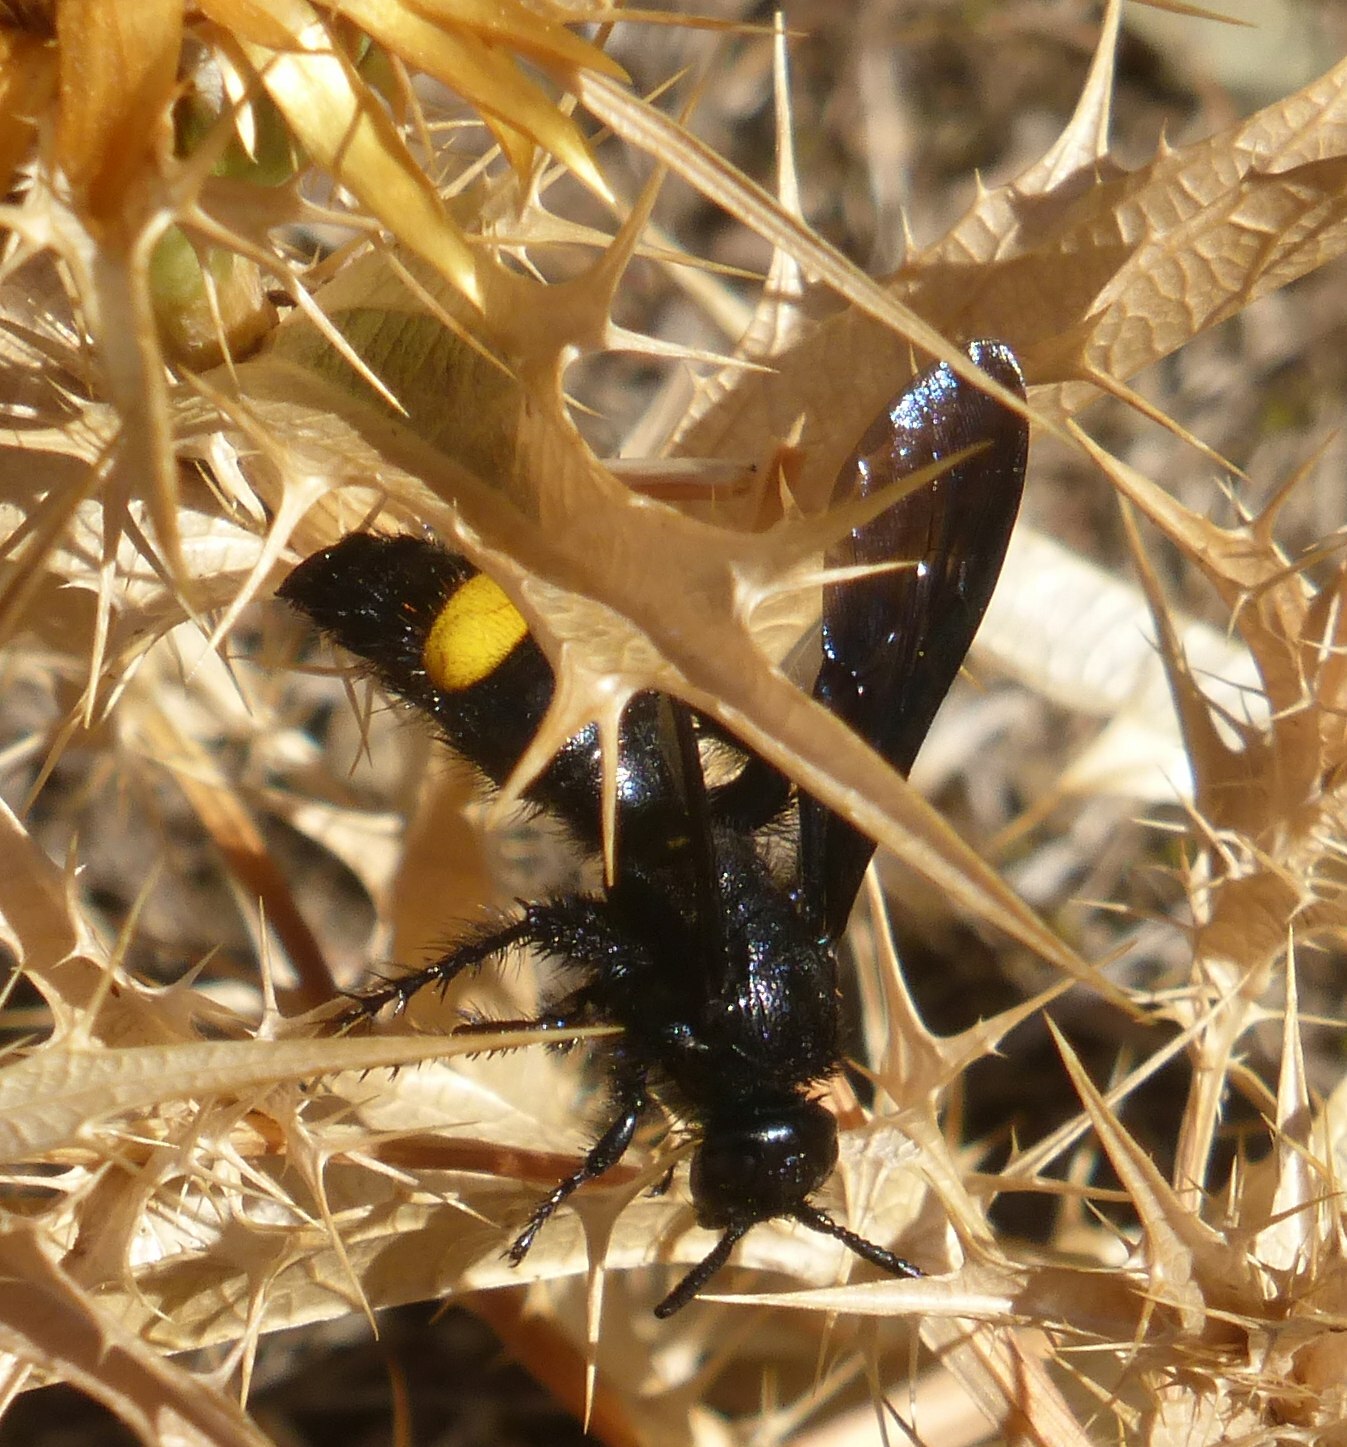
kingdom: Animalia
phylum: Arthropoda
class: Insecta
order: Hymenoptera
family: Scoliidae
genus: Scolia
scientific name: Scolia hirta
